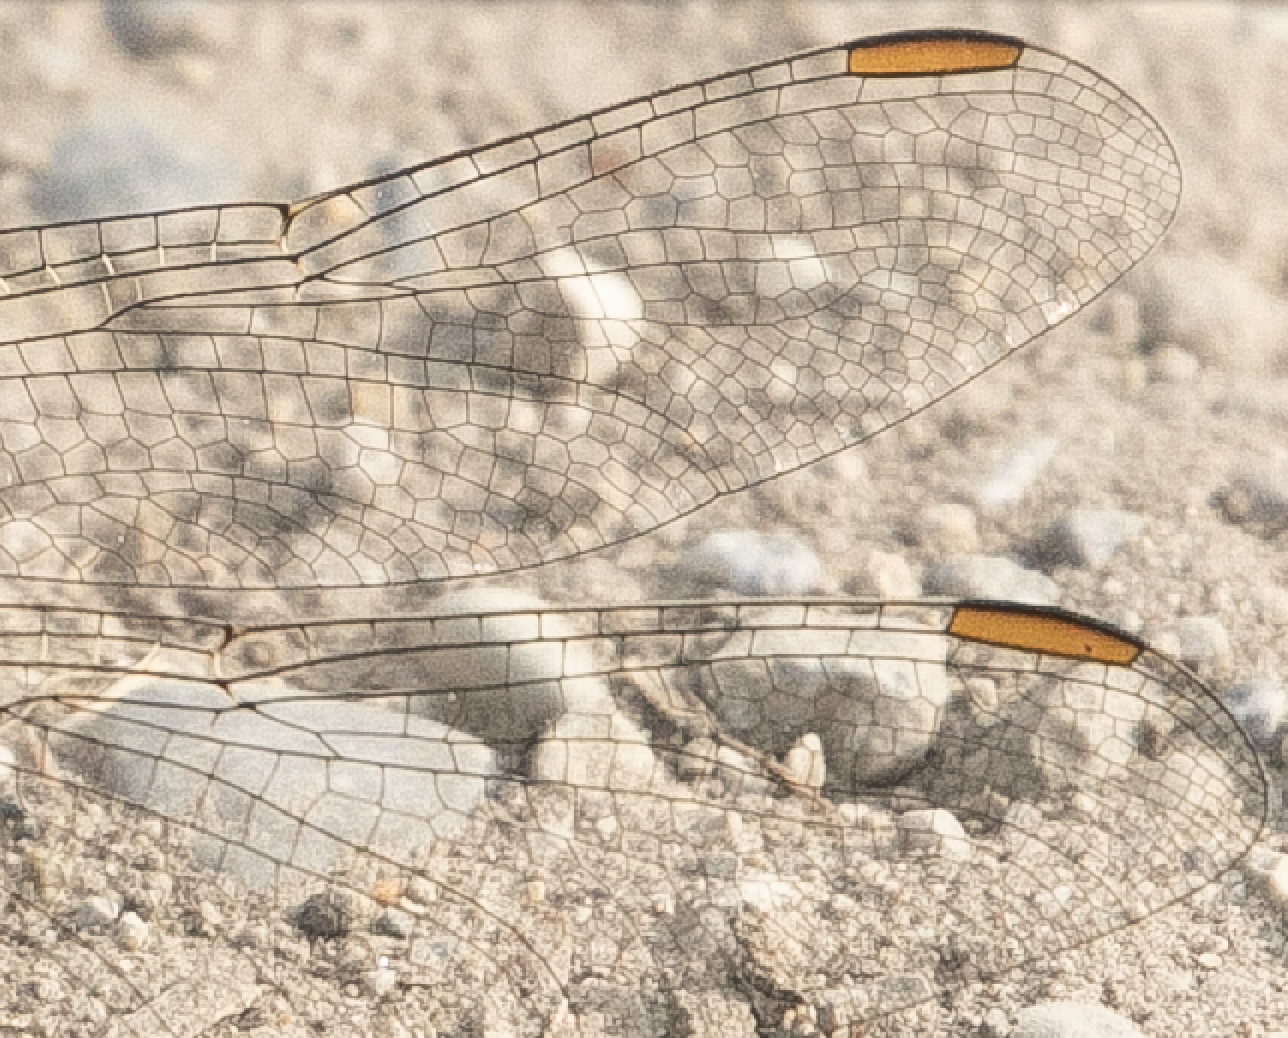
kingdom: Animalia
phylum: Arthropoda
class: Insecta
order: Odonata
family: Libellulidae
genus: Orthetrum
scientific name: Orthetrum brunneum
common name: Southern skimmer
